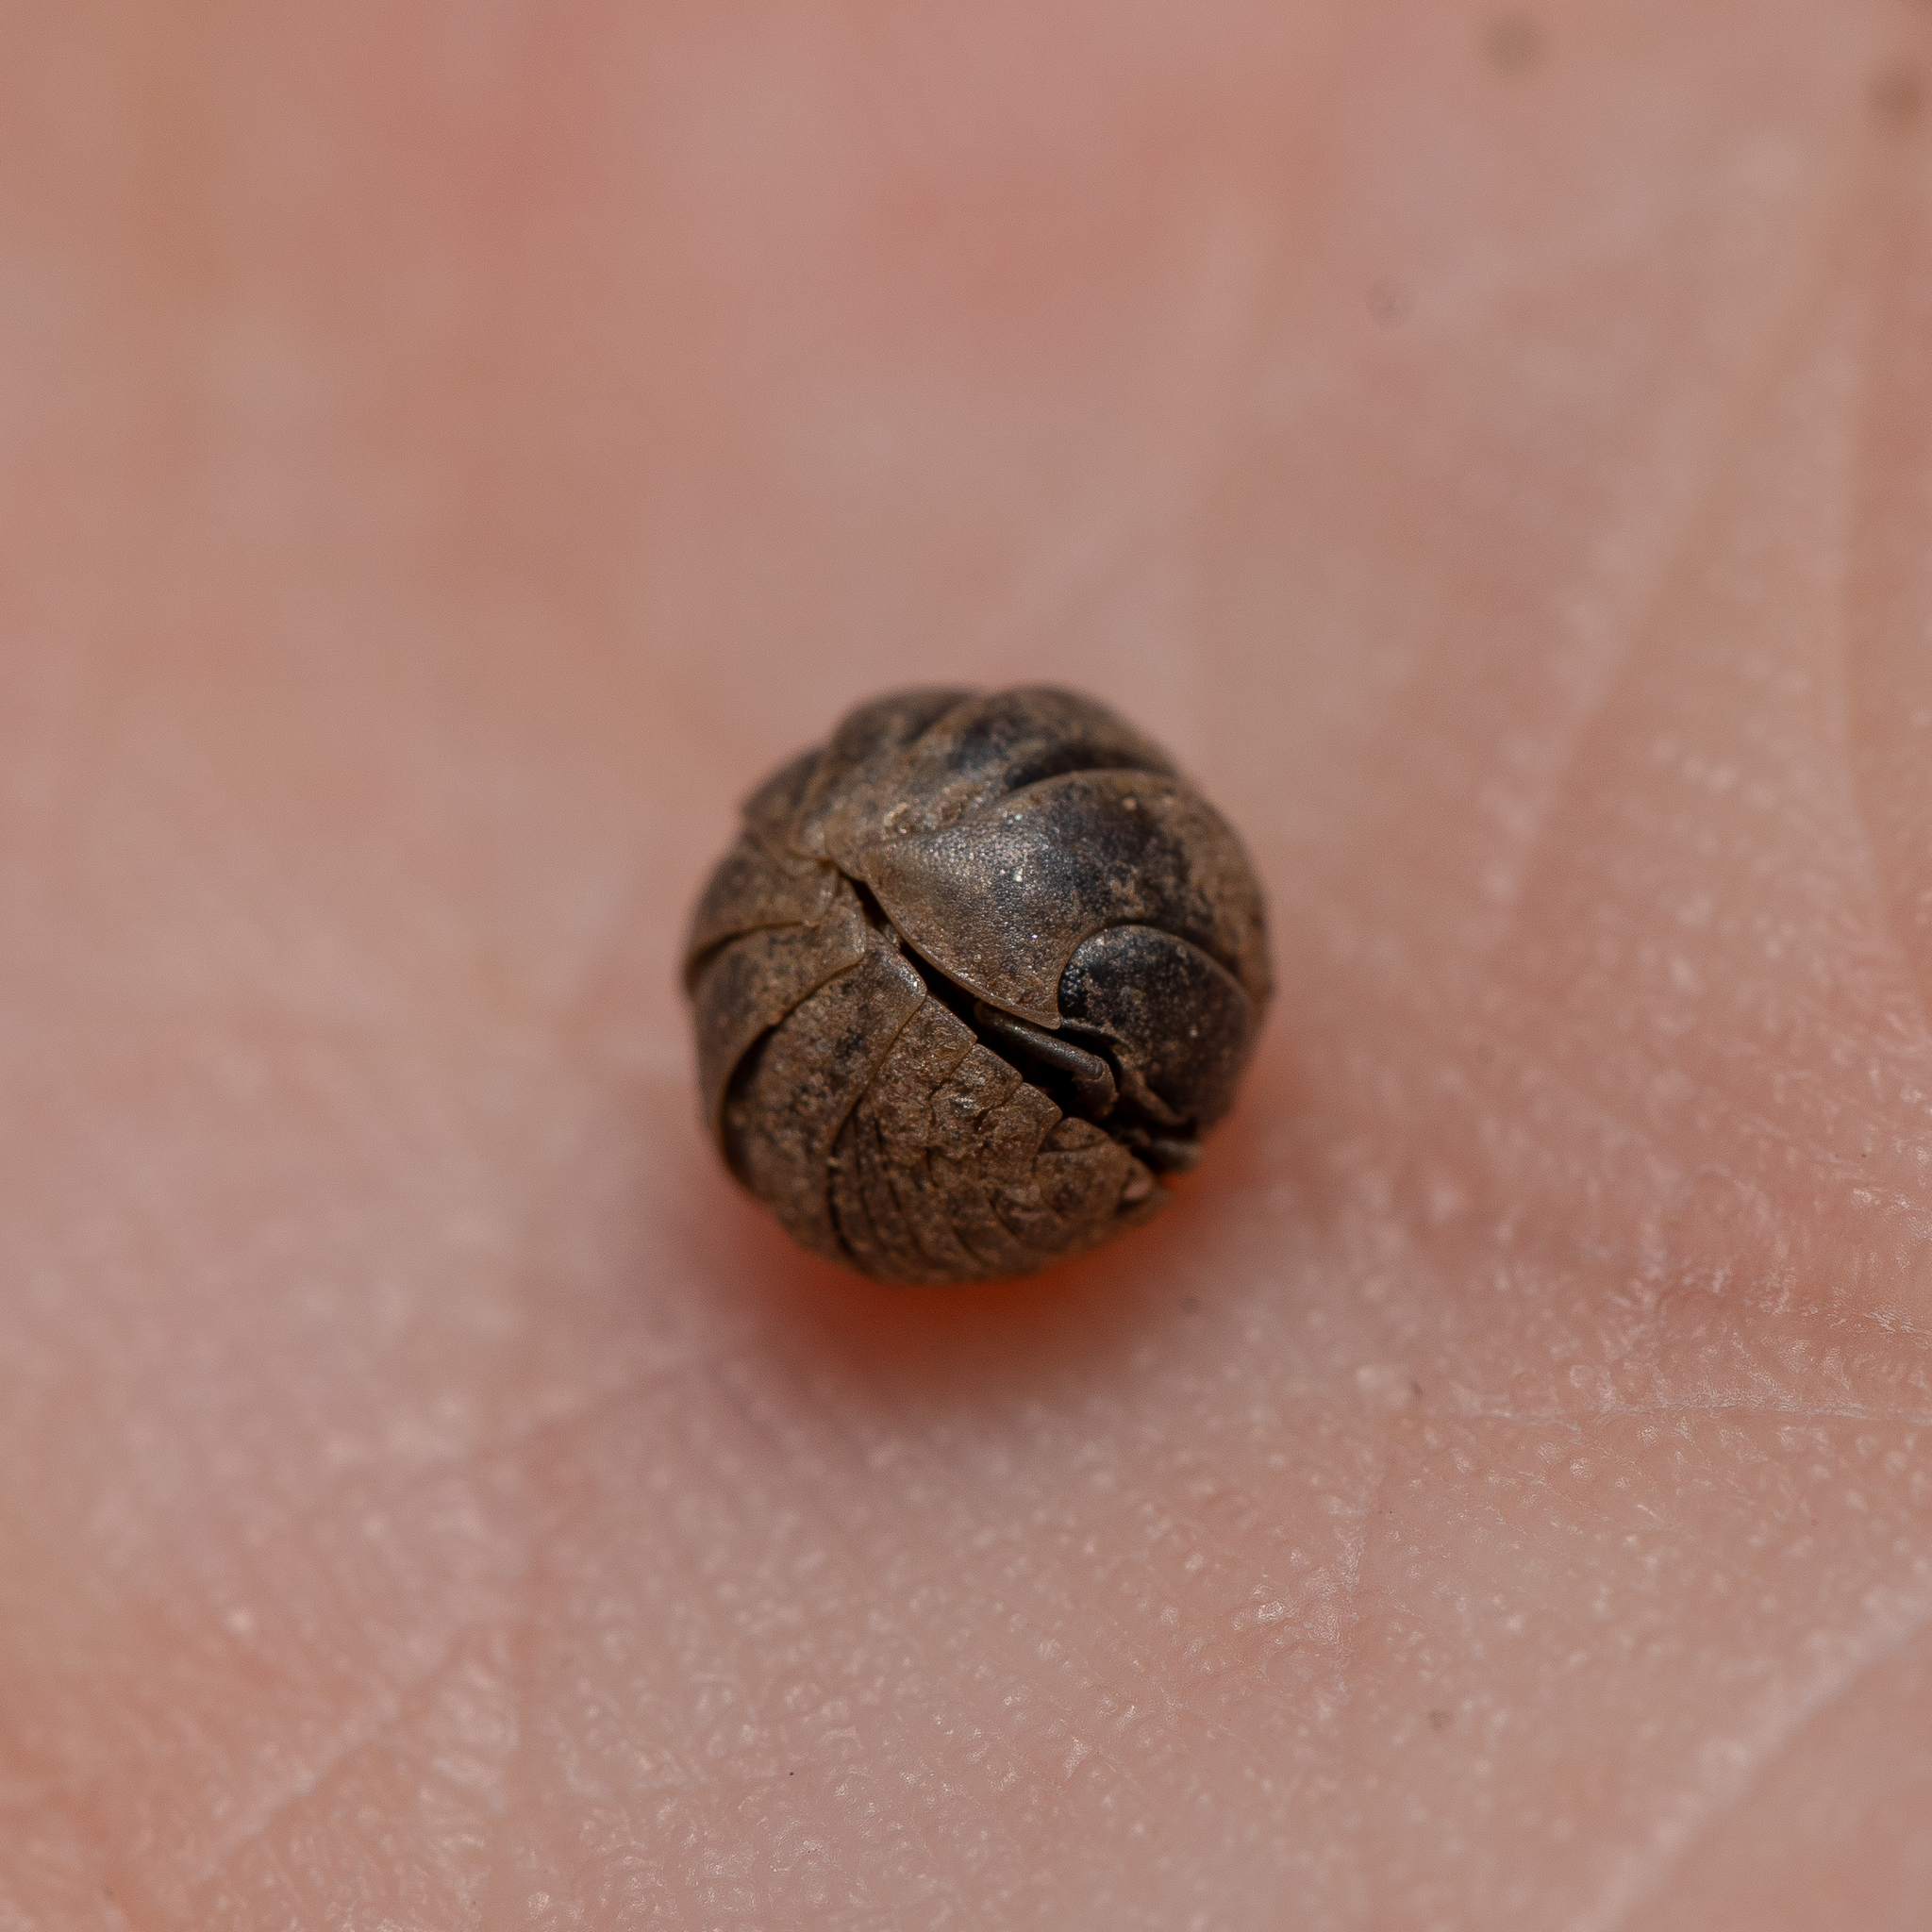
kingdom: Animalia
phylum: Arthropoda
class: Malacostraca
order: Isopoda
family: Armadillidiidae
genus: Armadillidium
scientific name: Armadillidium vulgare
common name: Common pill woodlouse
